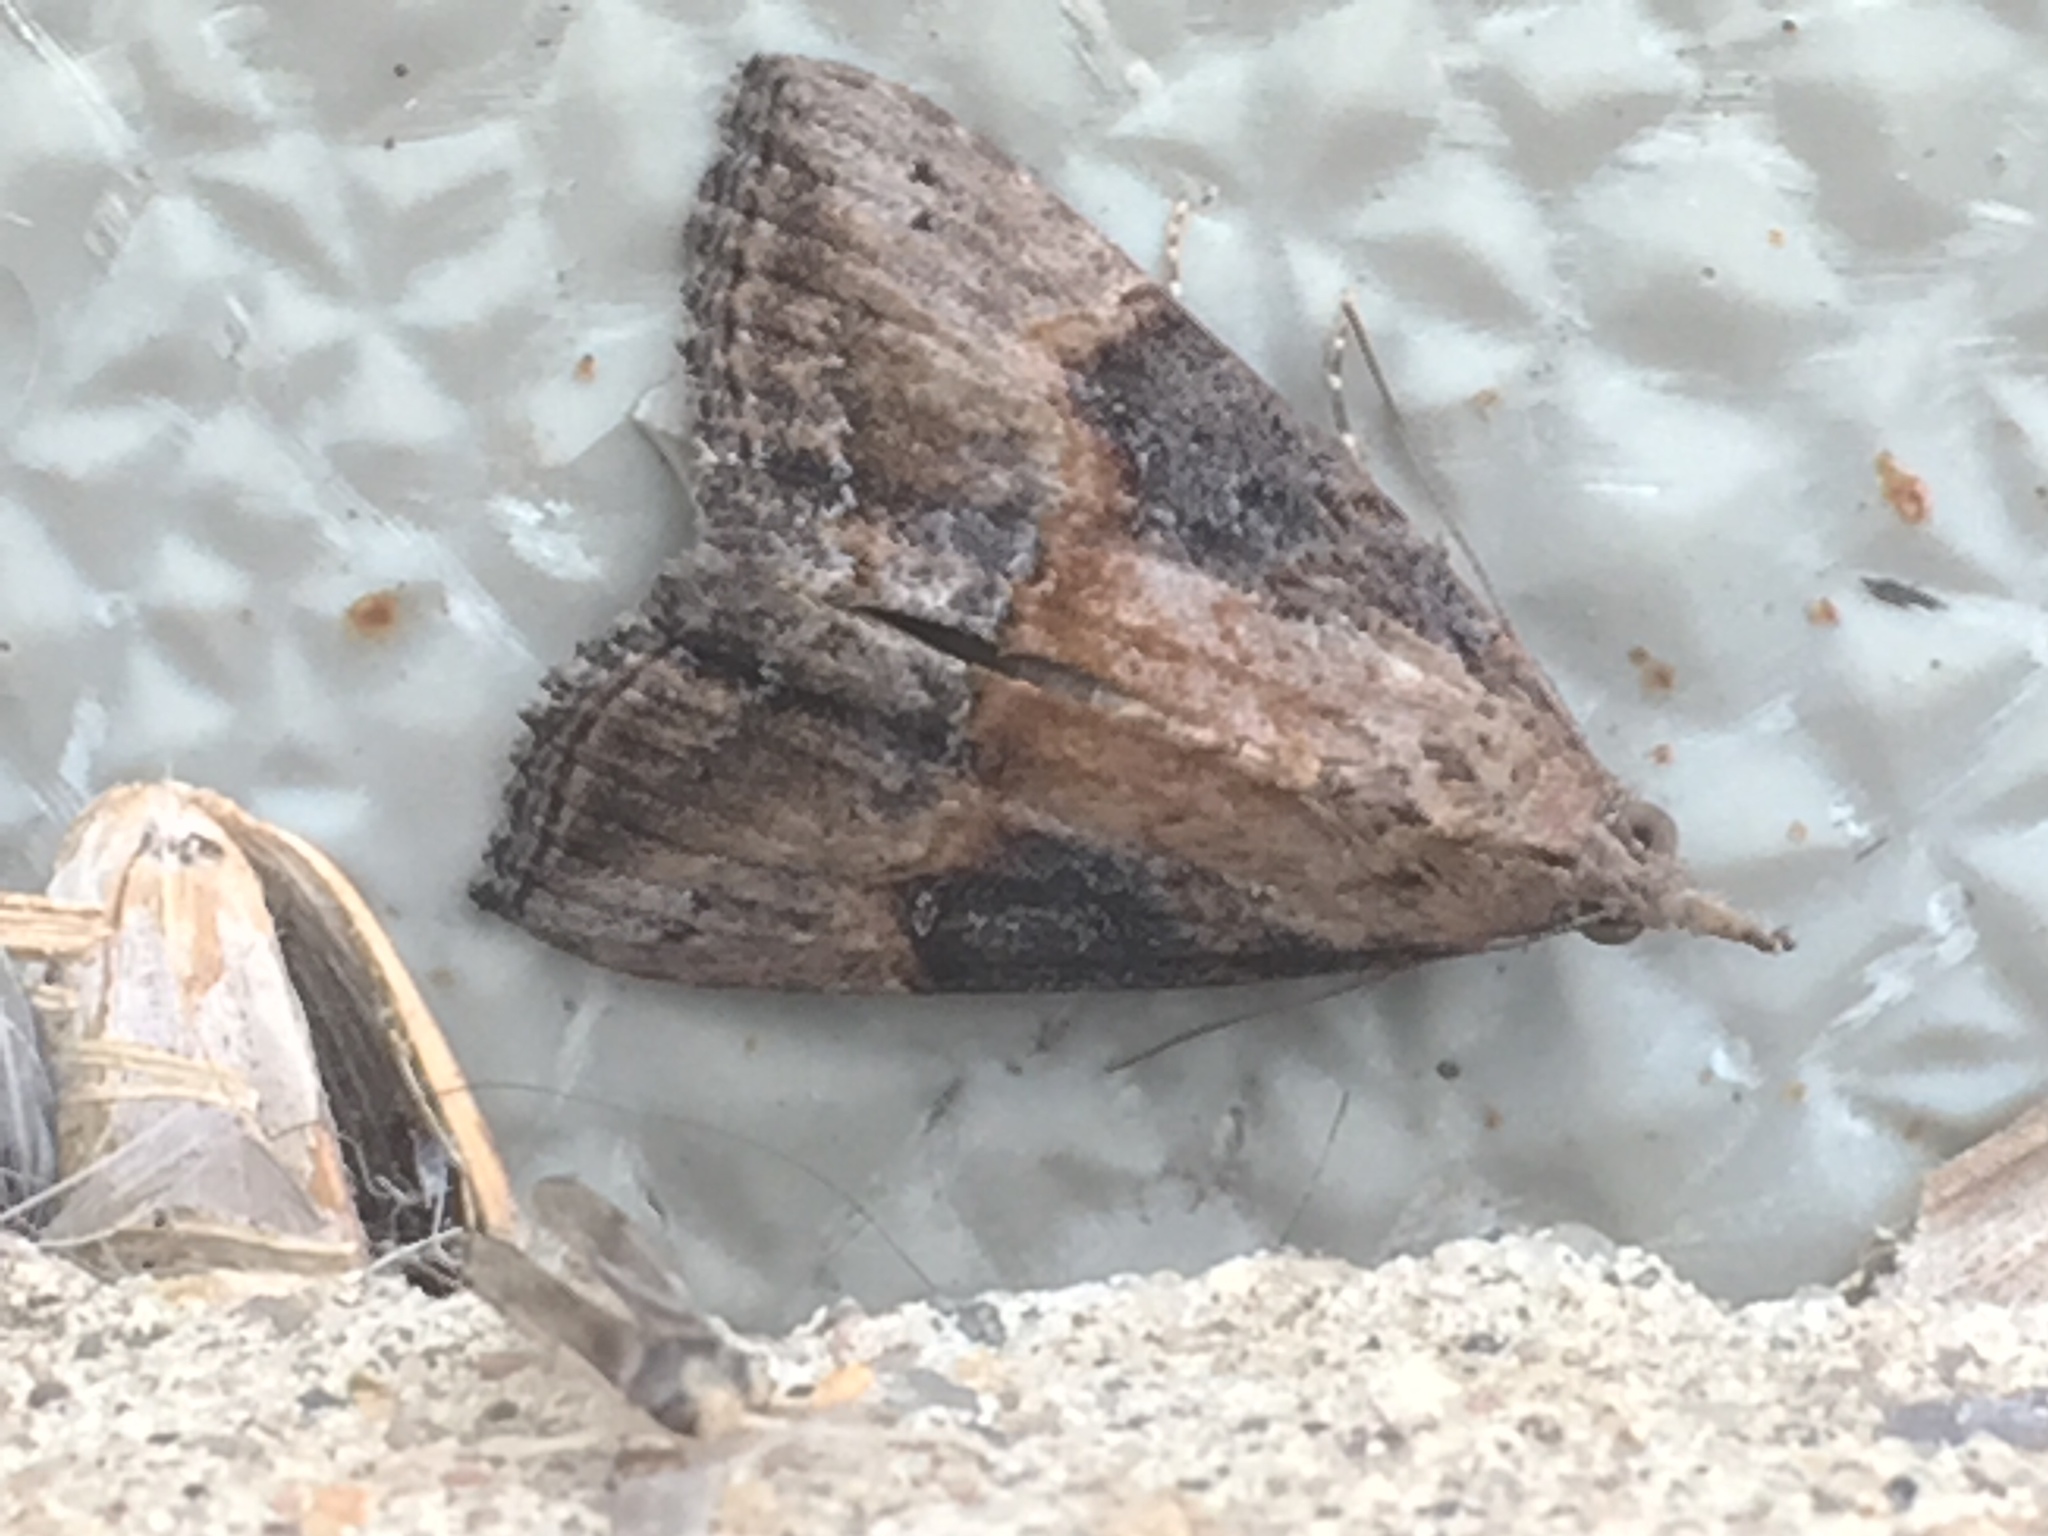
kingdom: Animalia
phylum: Arthropoda
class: Insecta
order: Lepidoptera
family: Erebidae
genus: Hypena
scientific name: Hypena scabra
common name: Green cloverworm
